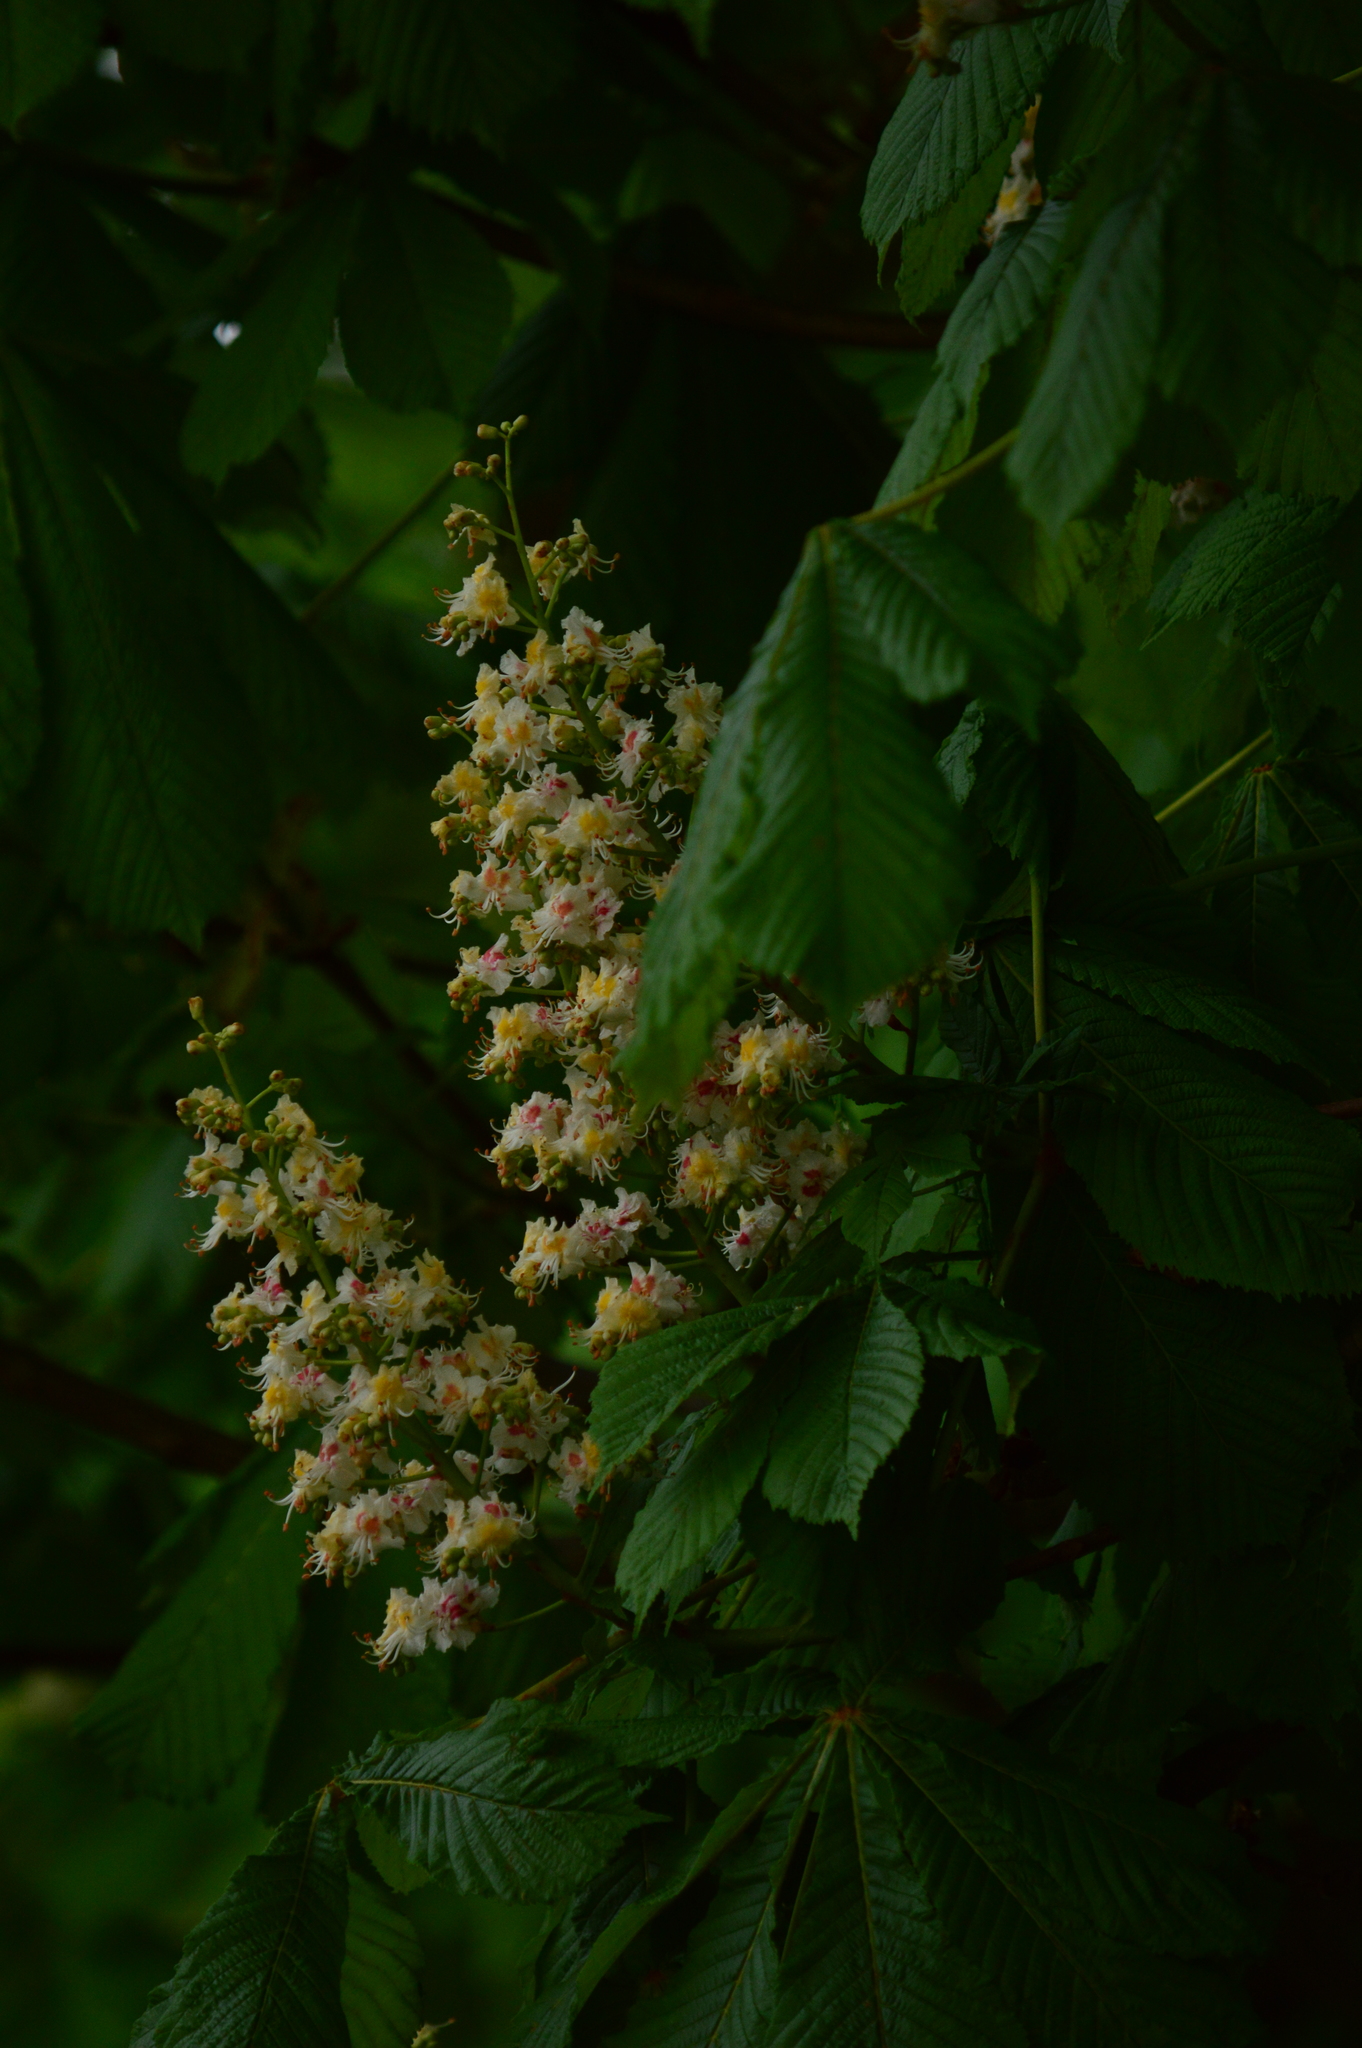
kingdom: Plantae
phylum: Tracheophyta
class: Magnoliopsida
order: Sapindales
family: Sapindaceae
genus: Aesculus
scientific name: Aesculus hippocastanum
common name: Horse-chestnut
